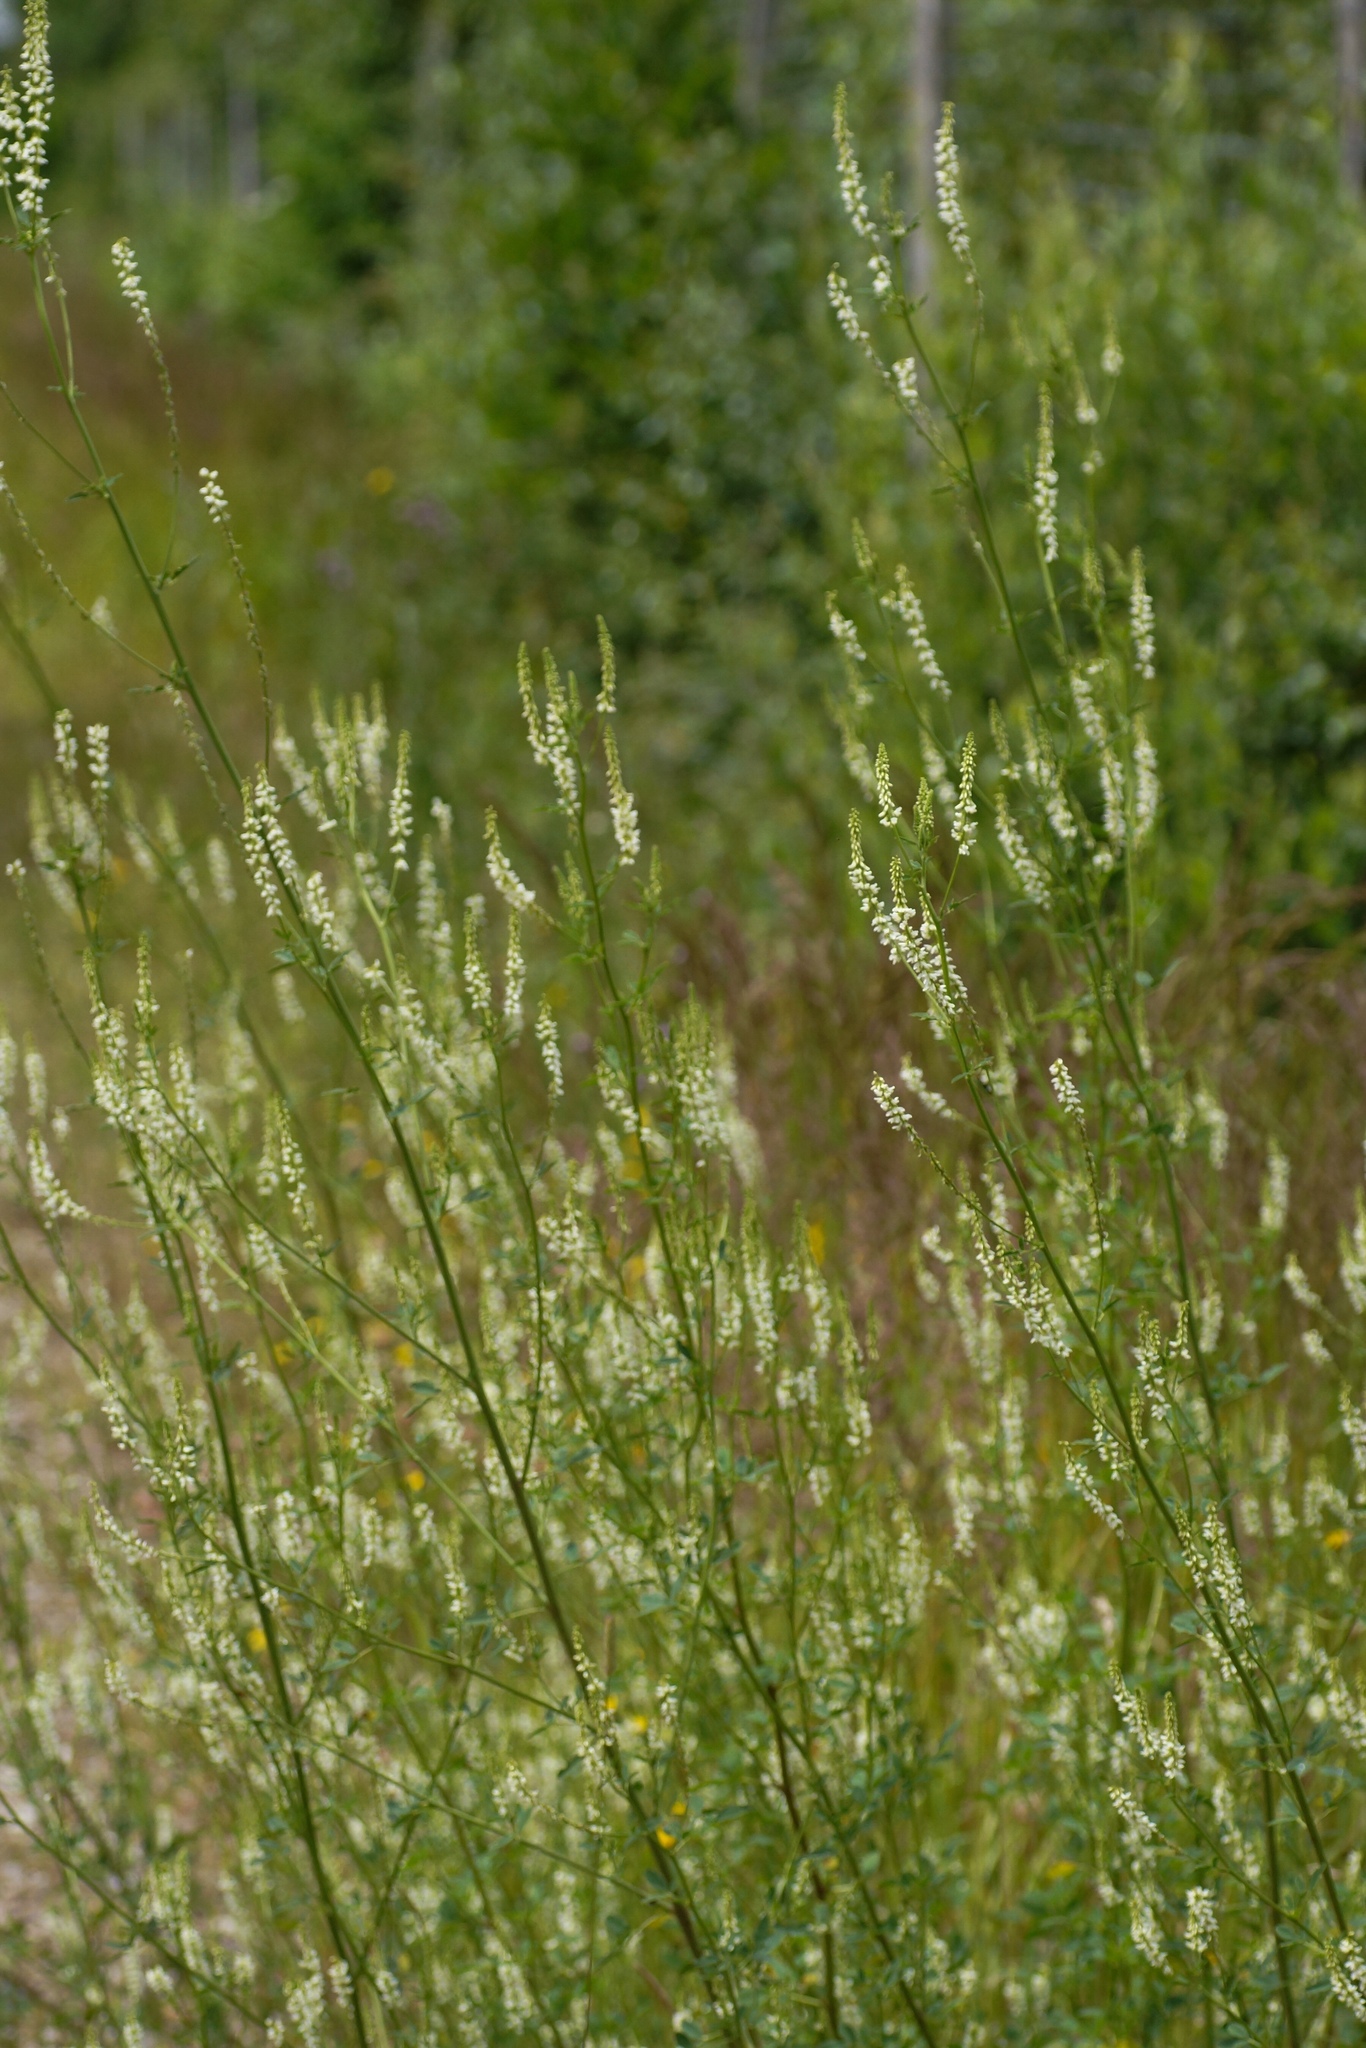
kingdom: Plantae
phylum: Tracheophyta
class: Magnoliopsida
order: Fabales
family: Fabaceae
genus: Melilotus
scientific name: Melilotus albus
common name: White melilot
